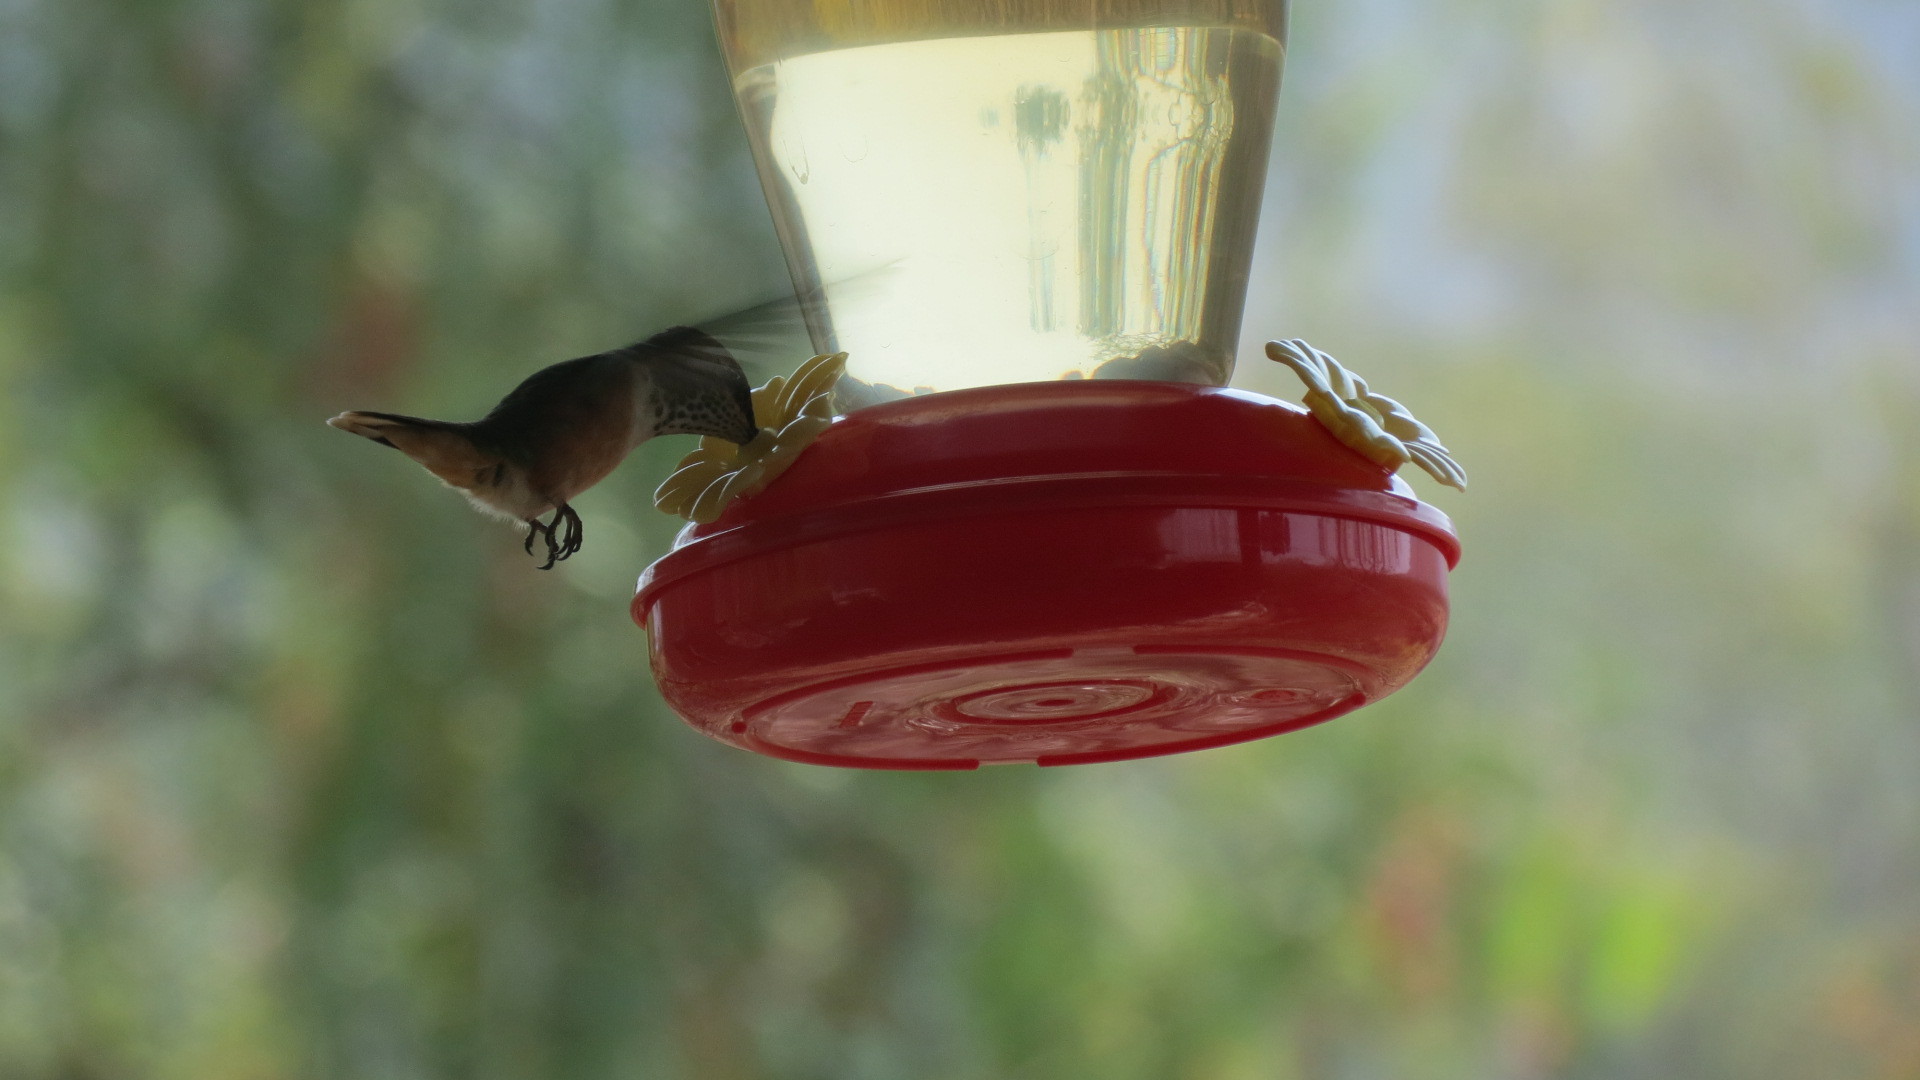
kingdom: Animalia
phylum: Chordata
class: Aves
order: Apodiformes
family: Trochilidae
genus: Selasphorus
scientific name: Selasphorus rufus
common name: Rufous hummingbird
